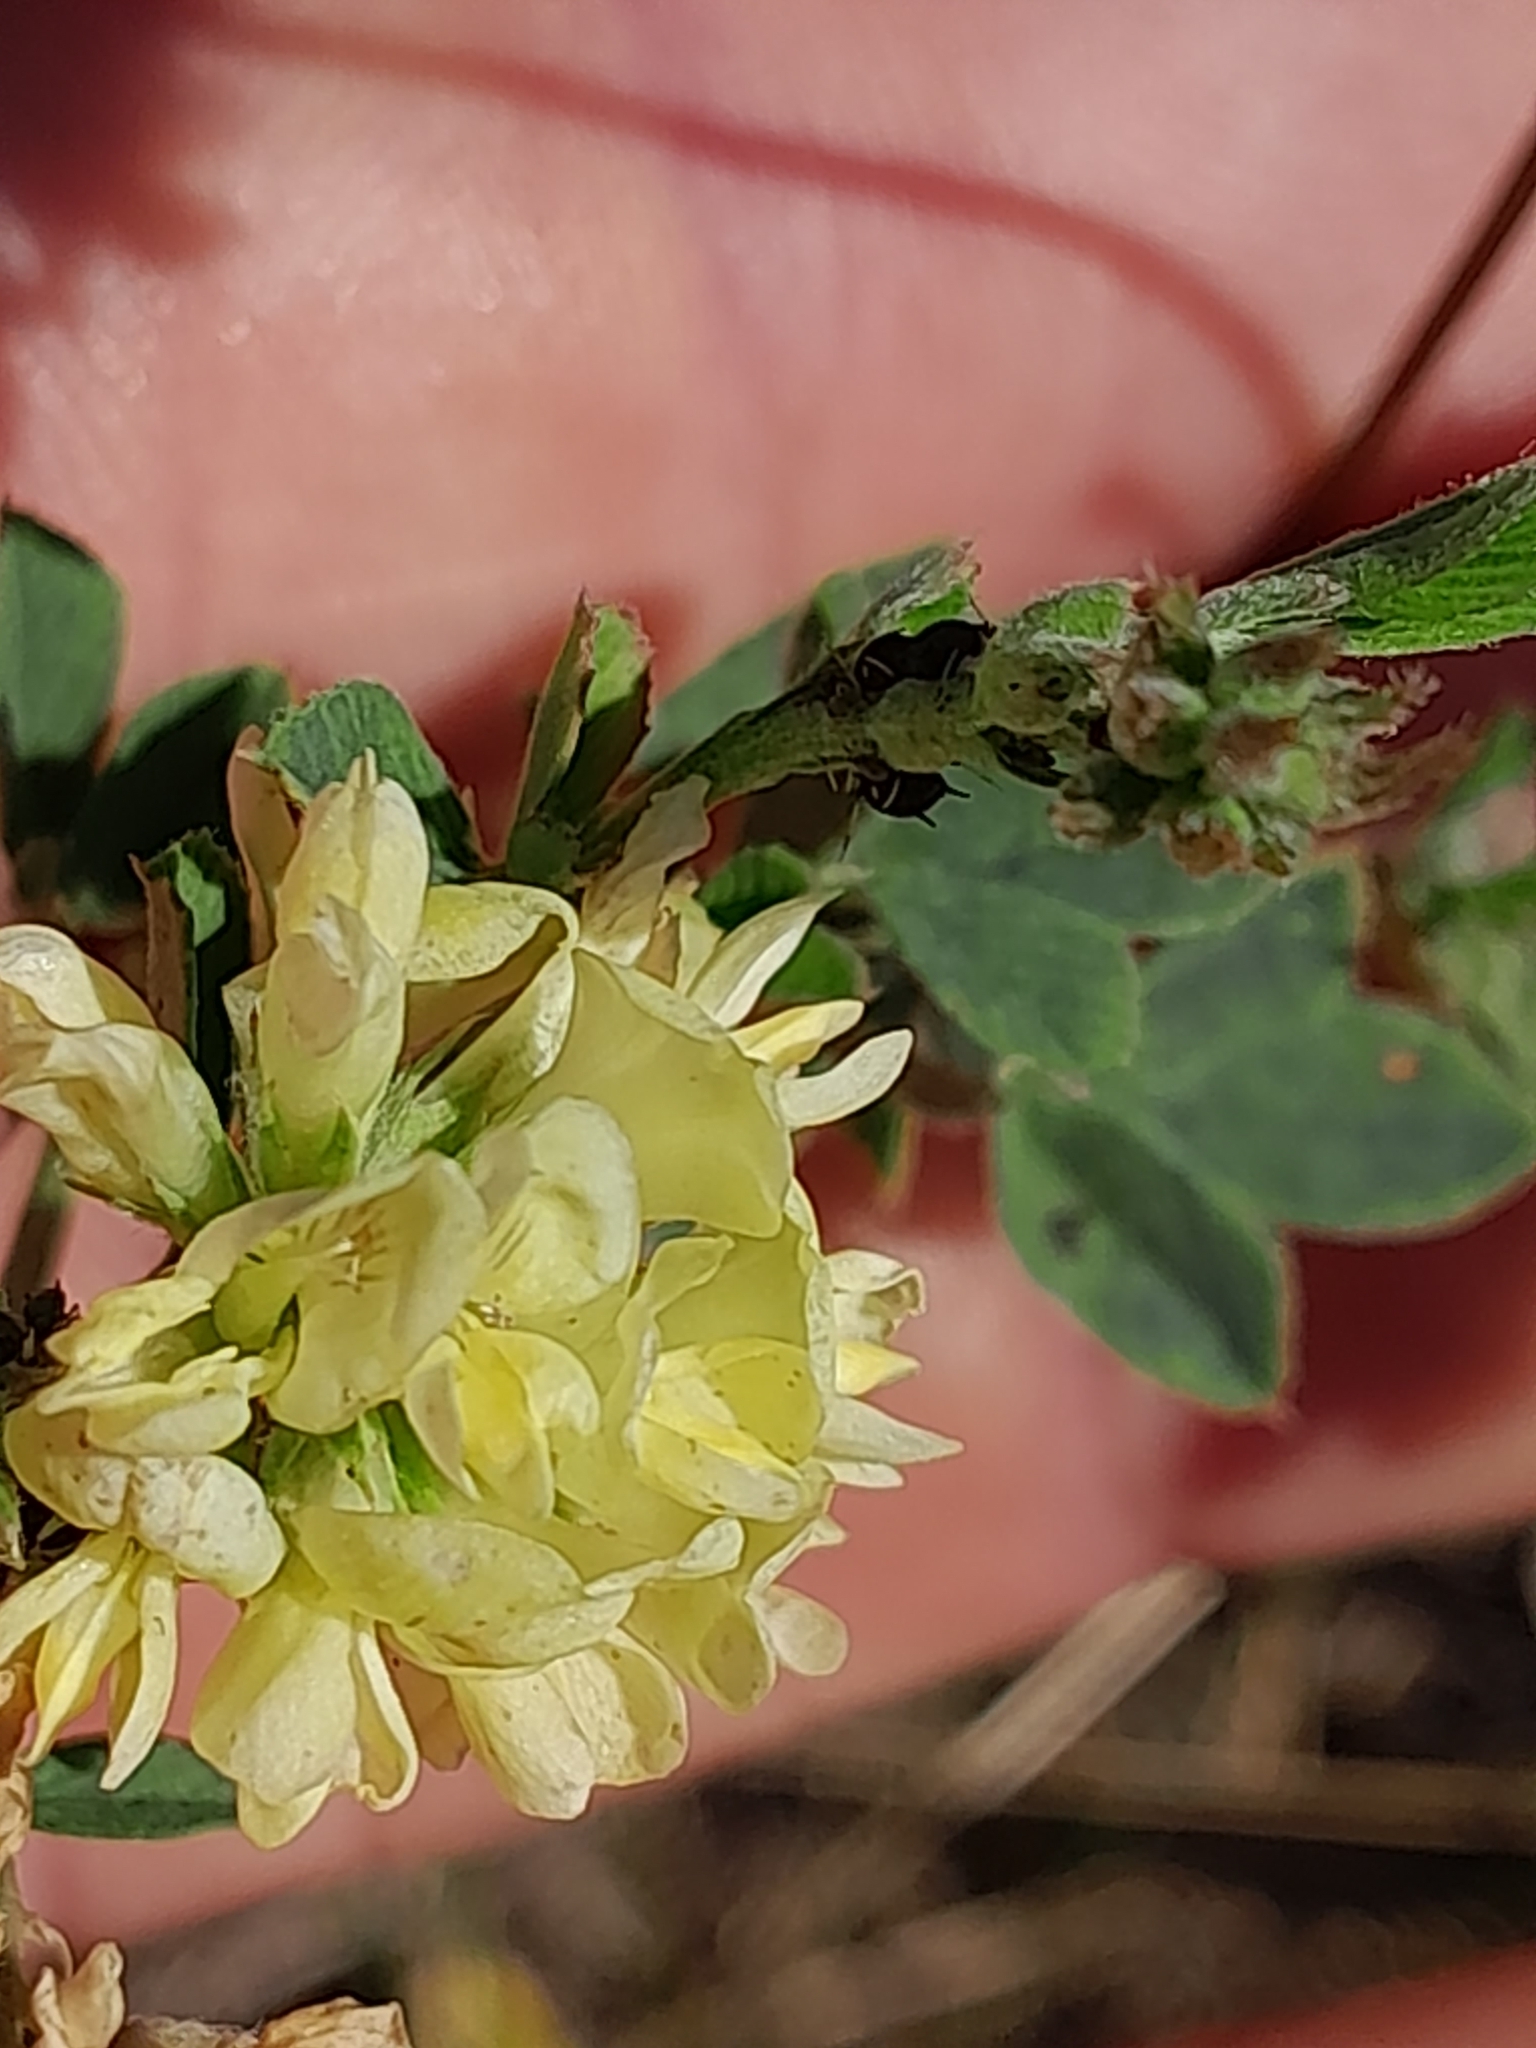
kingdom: Plantae
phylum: Tracheophyta
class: Magnoliopsida
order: Fabales
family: Fabaceae
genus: Medicago
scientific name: Medicago varia
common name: Sand lucerne
